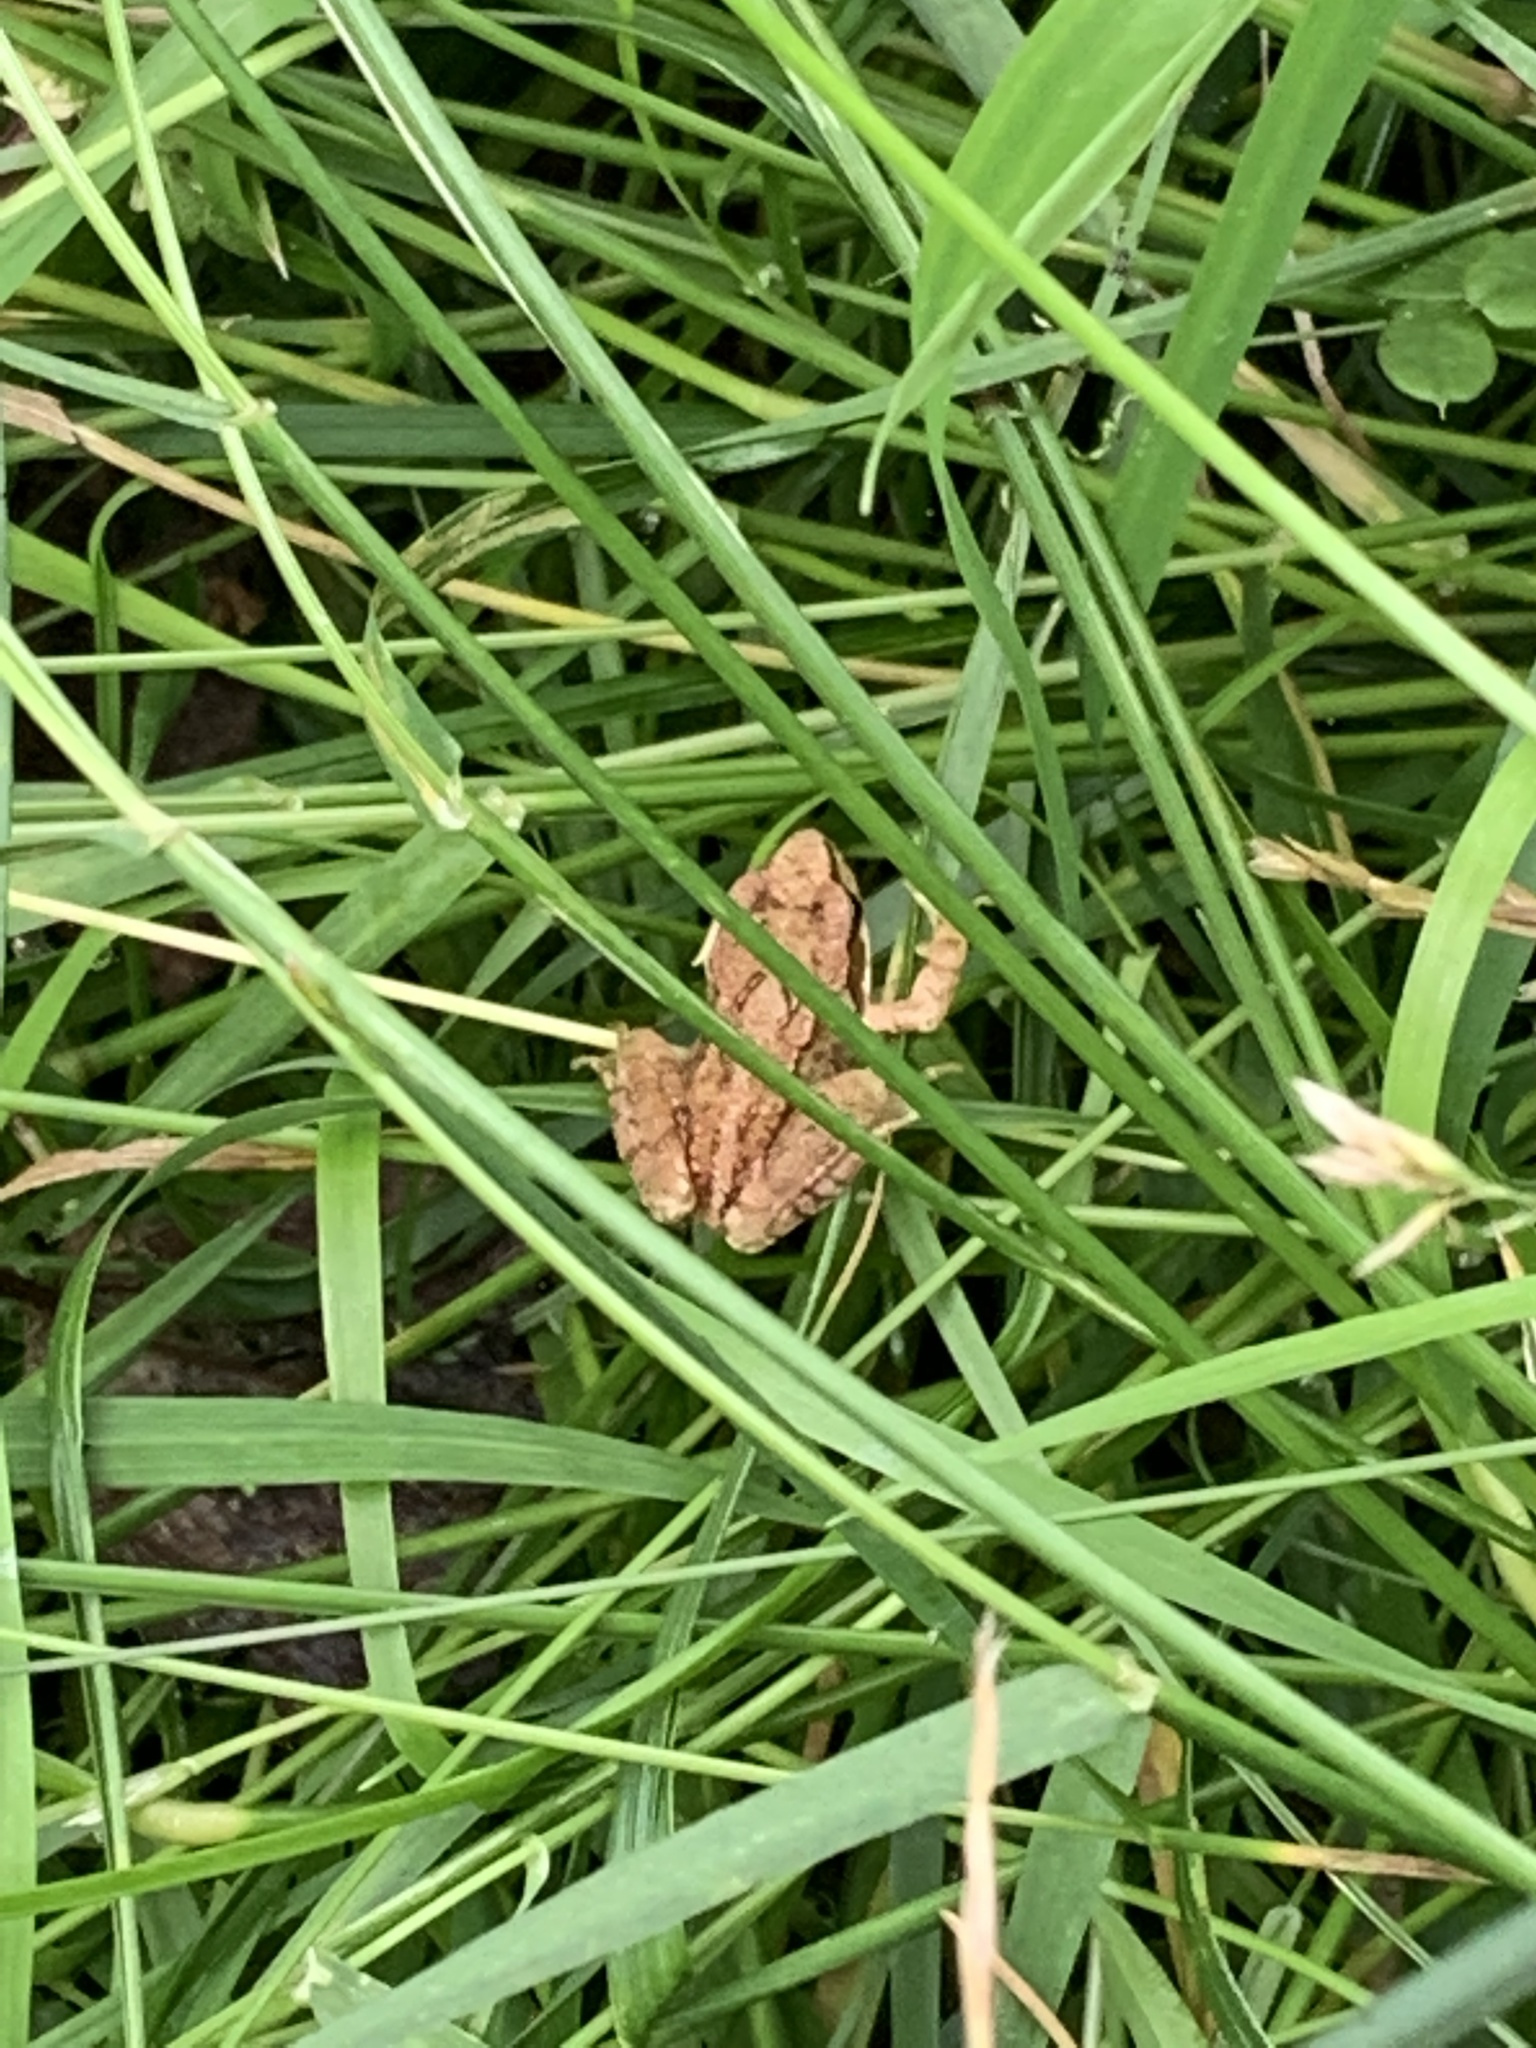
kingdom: Animalia
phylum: Chordata
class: Amphibia
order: Anura
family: Ranidae
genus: Rana
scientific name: Rana temporaria
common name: Common frog
